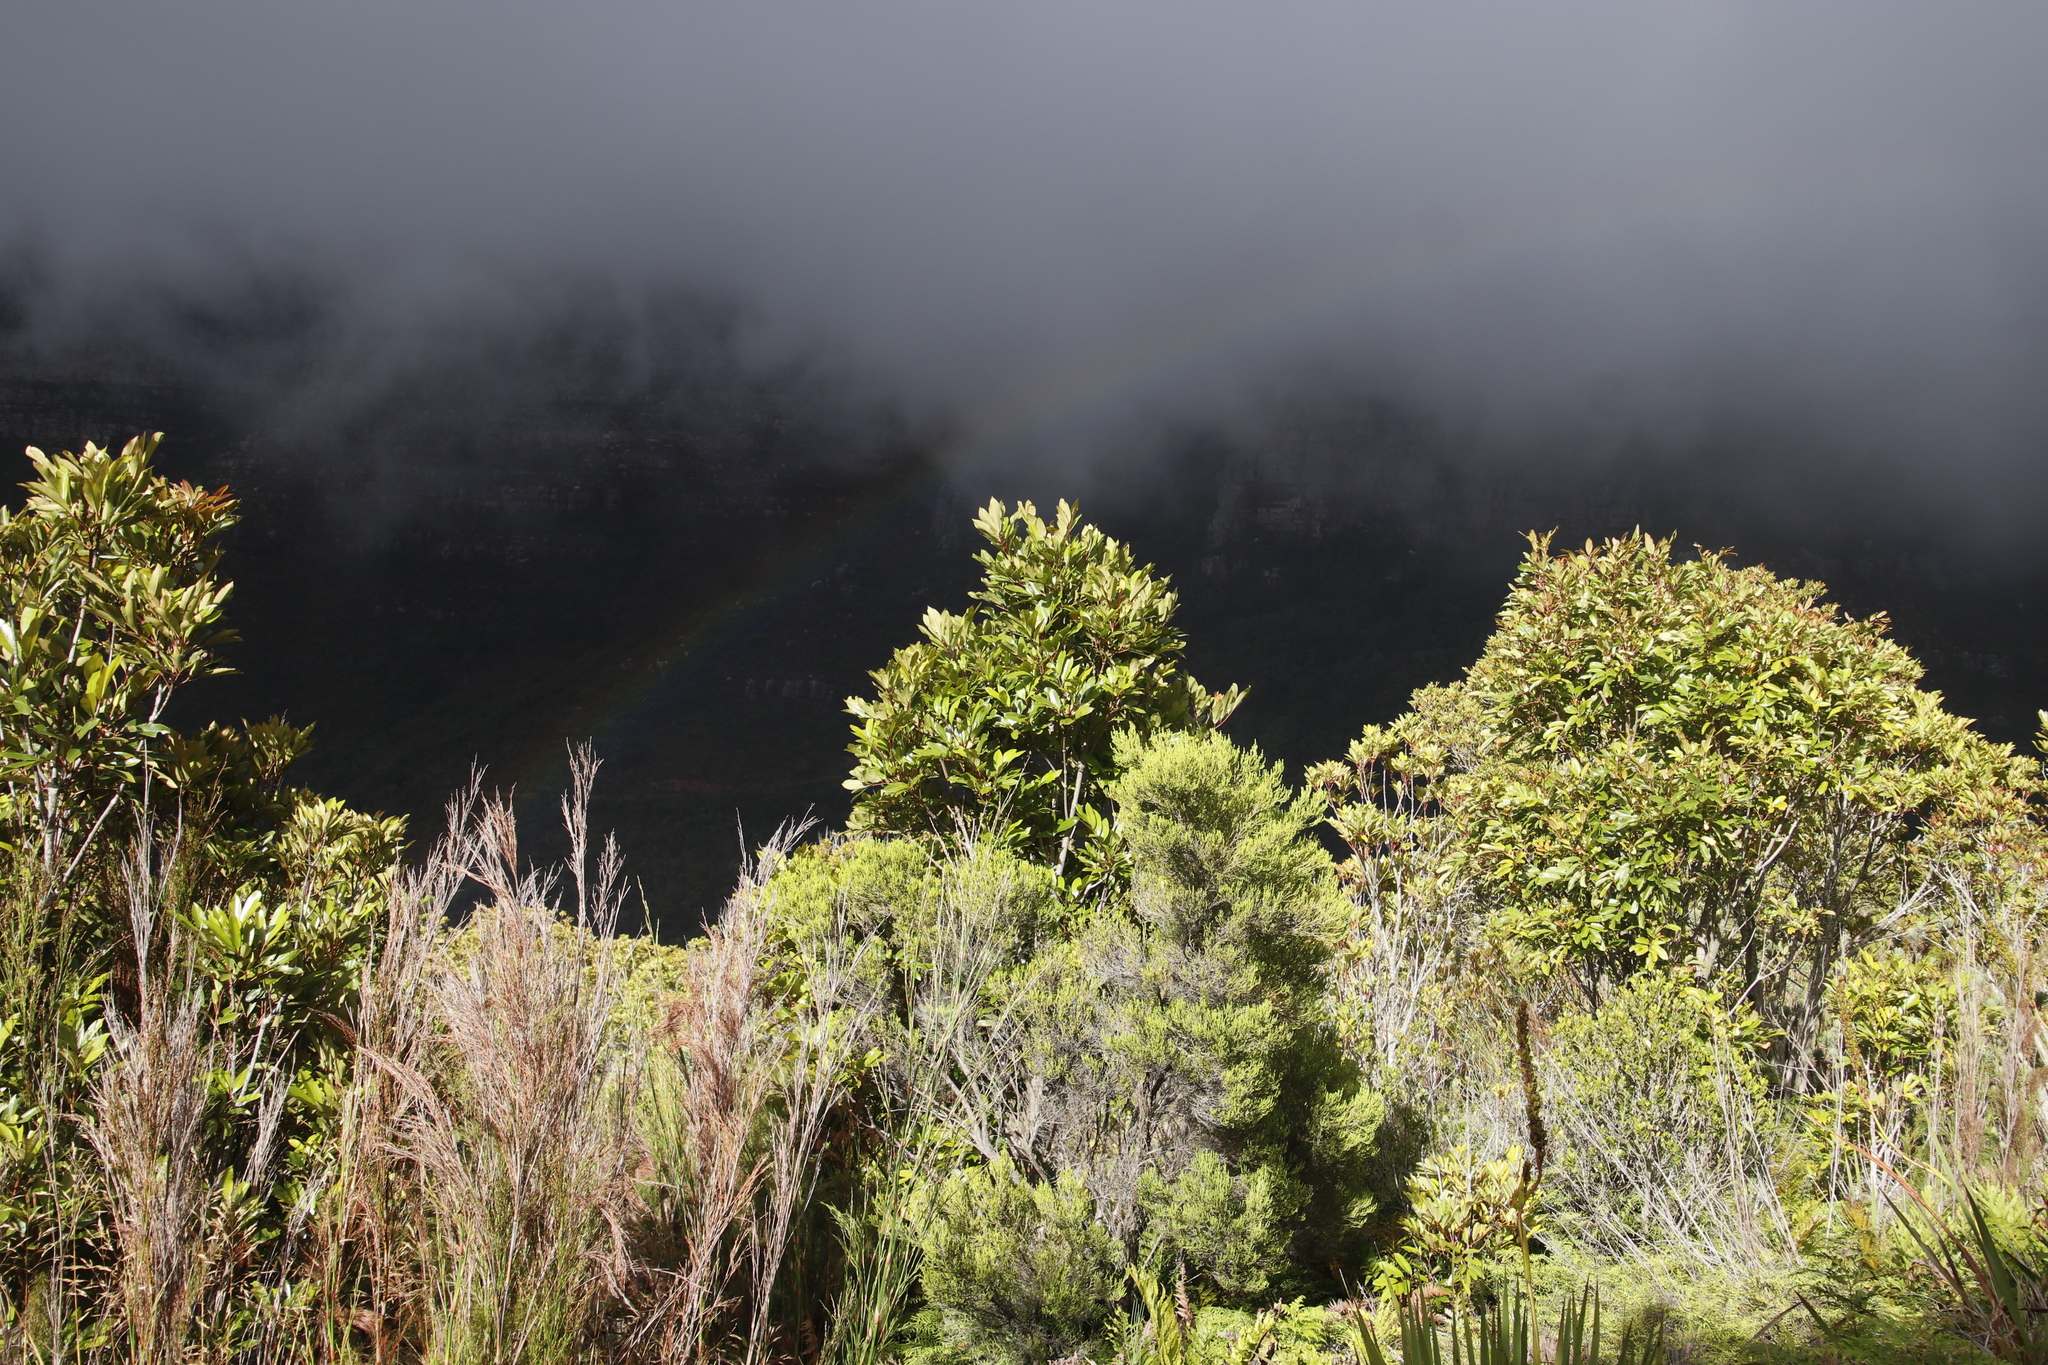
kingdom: Plantae
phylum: Tracheophyta
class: Magnoliopsida
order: Oxalidales
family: Cunoniaceae
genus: Cunonia
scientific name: Cunonia capensis
